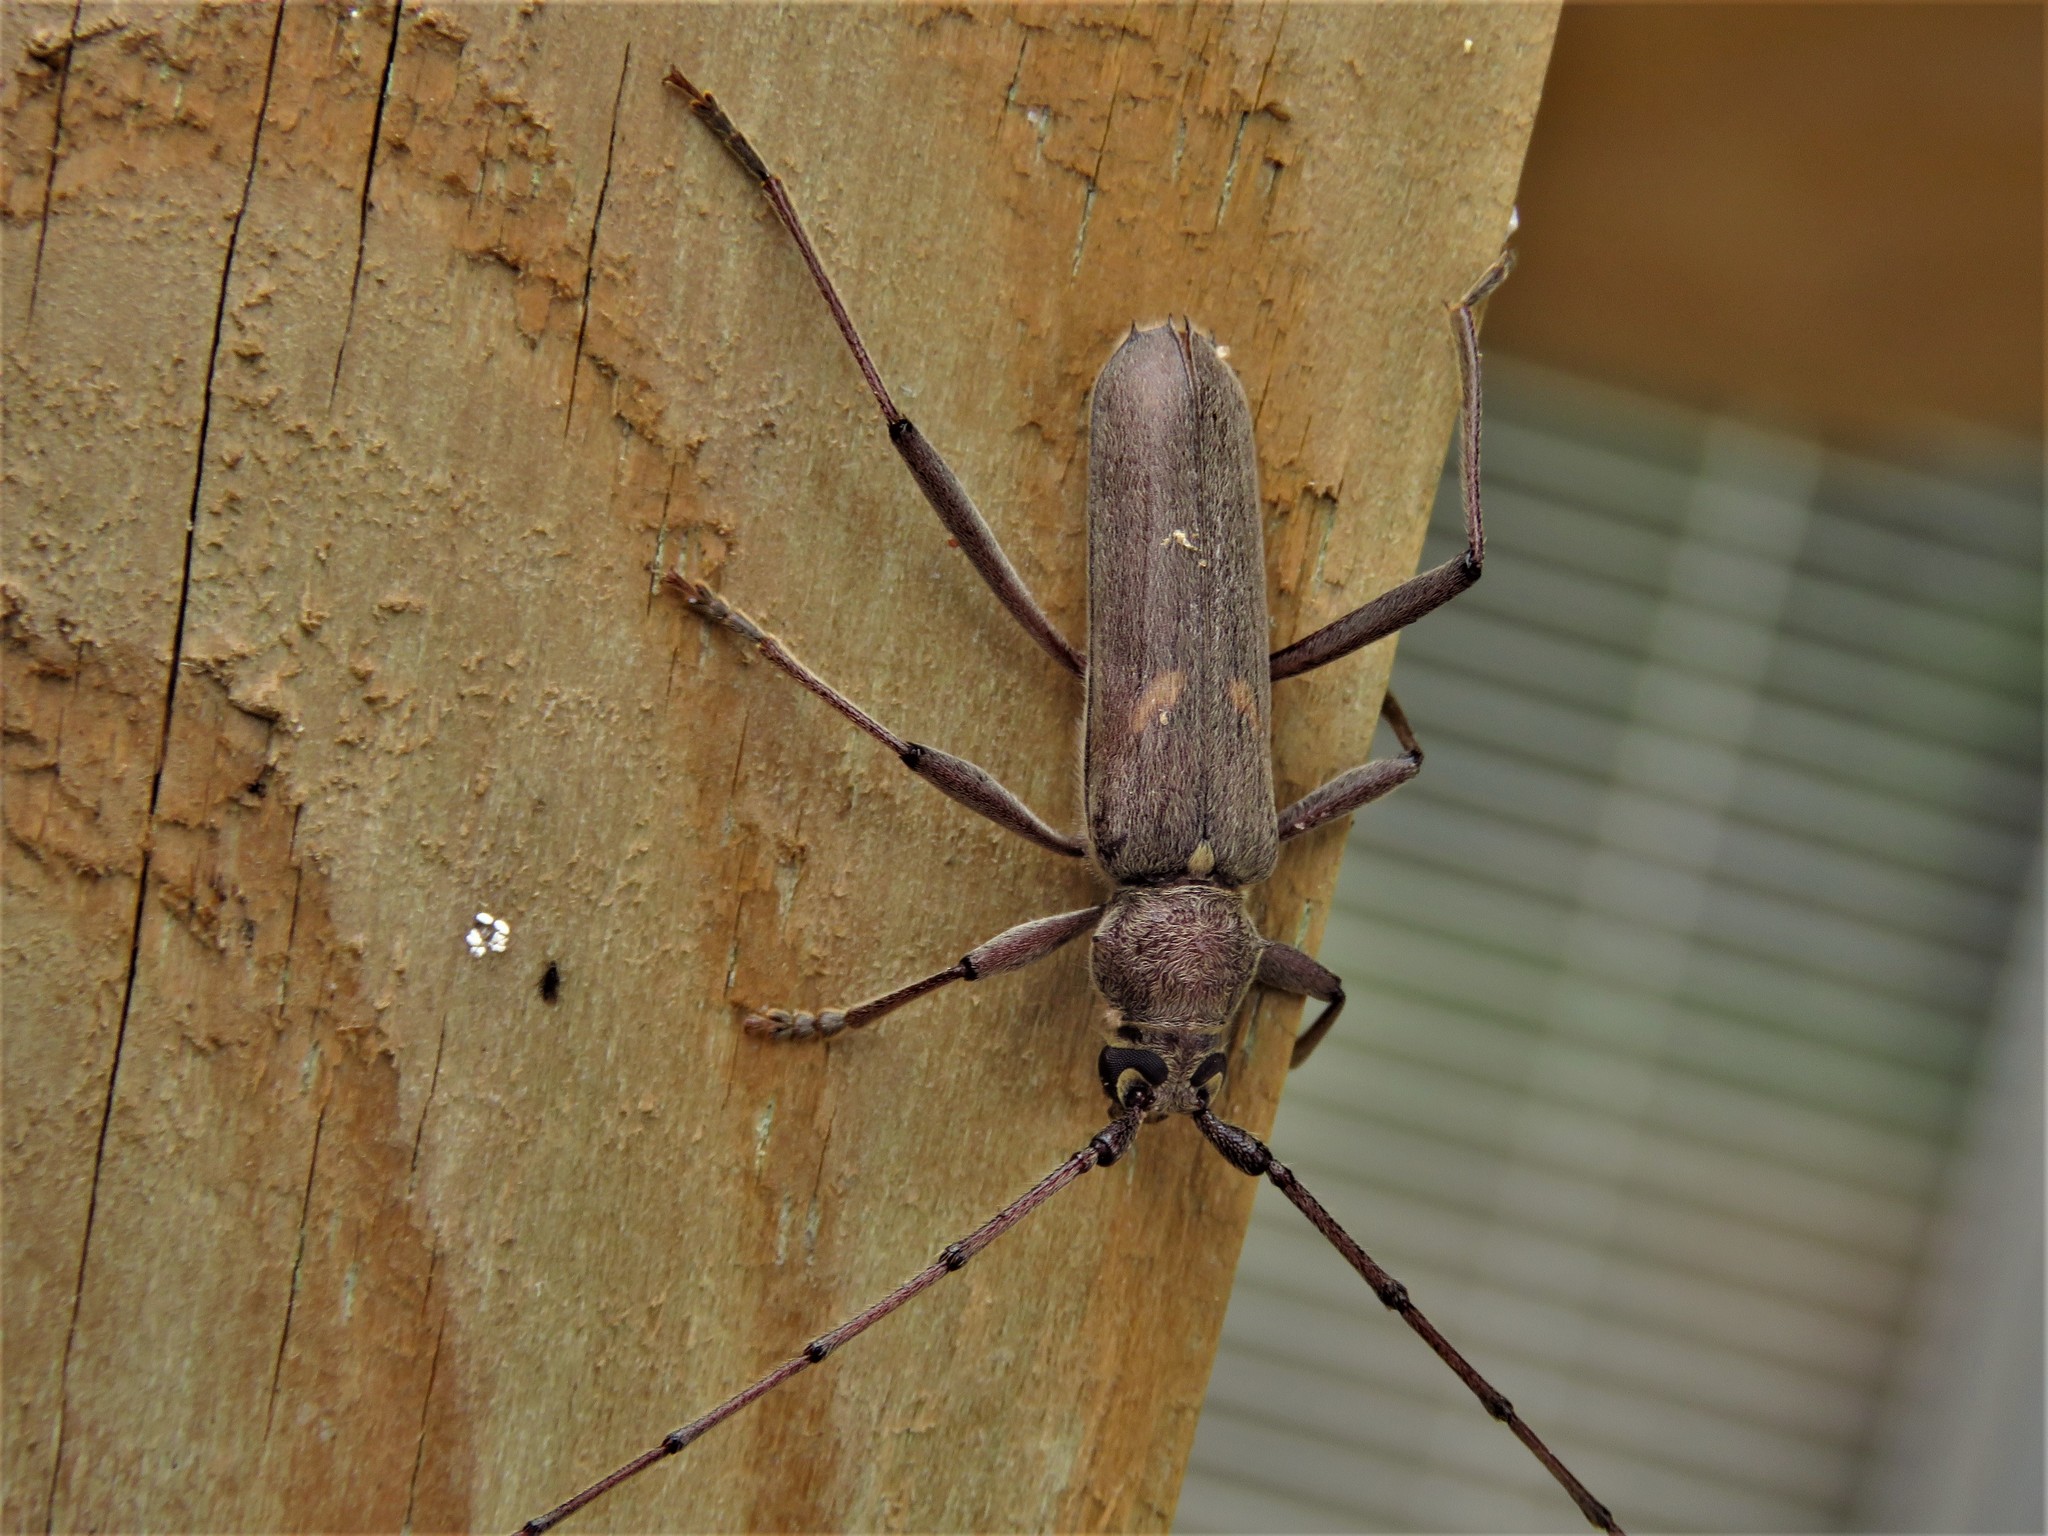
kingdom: Animalia
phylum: Arthropoda
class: Insecta
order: Coleoptera
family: Cerambycidae
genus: Knulliana
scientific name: Knulliana cincta
